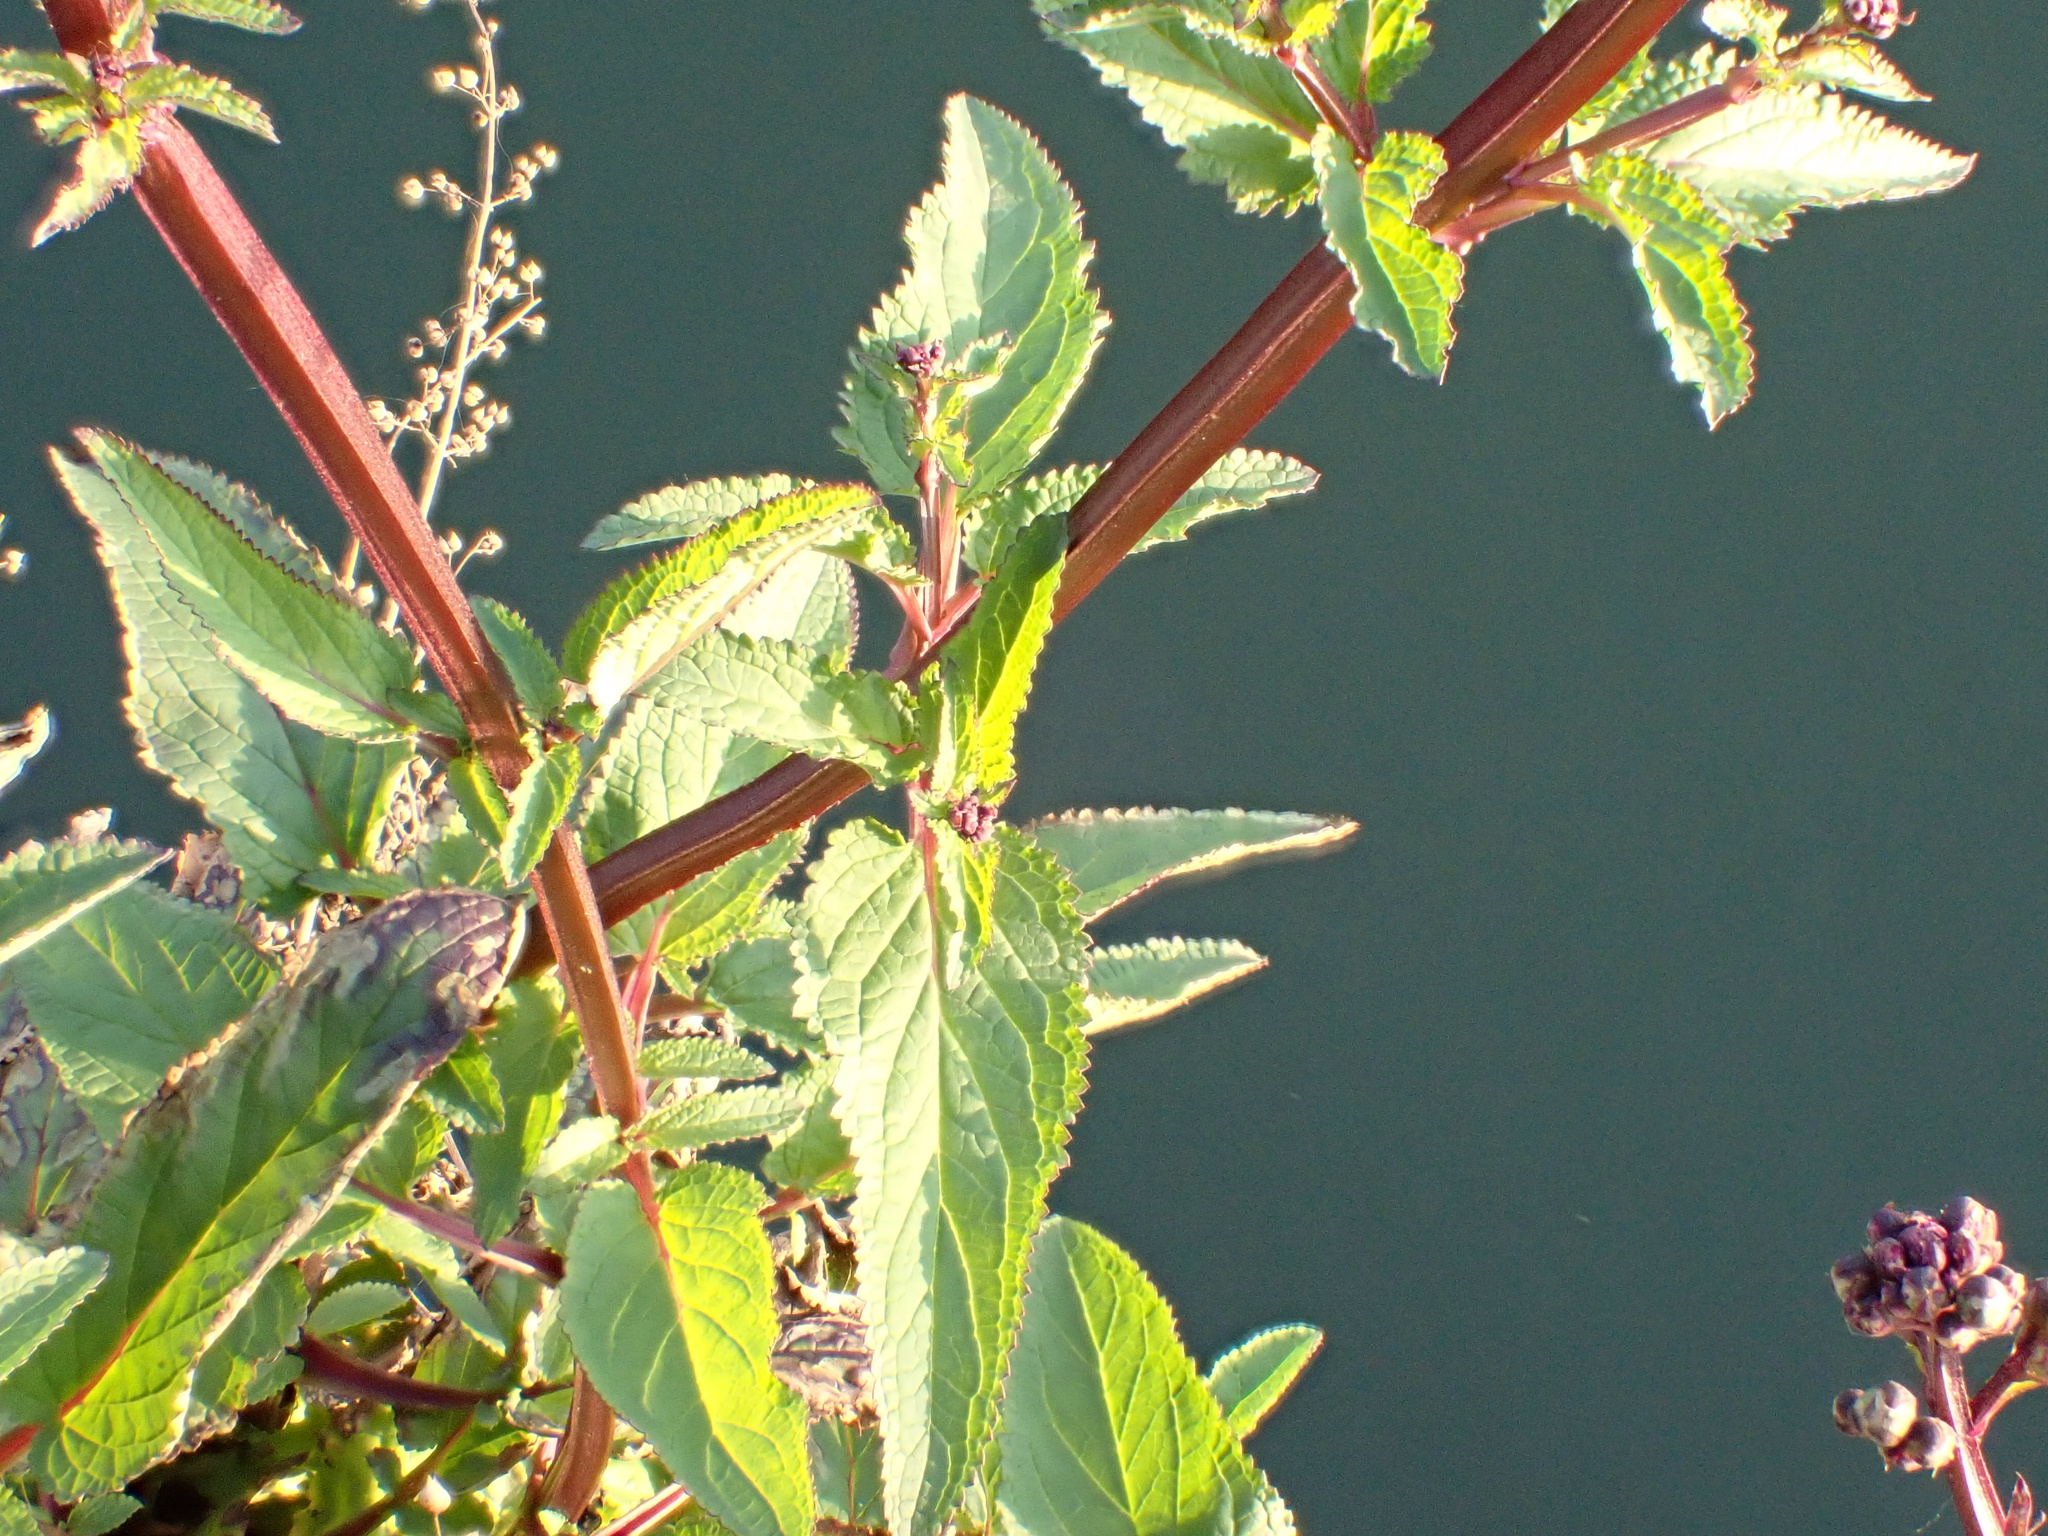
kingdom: Plantae
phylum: Tracheophyta
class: Magnoliopsida
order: Lamiales
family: Scrophulariaceae
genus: Scrophularia
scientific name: Scrophularia nodosa
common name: Common figwort
